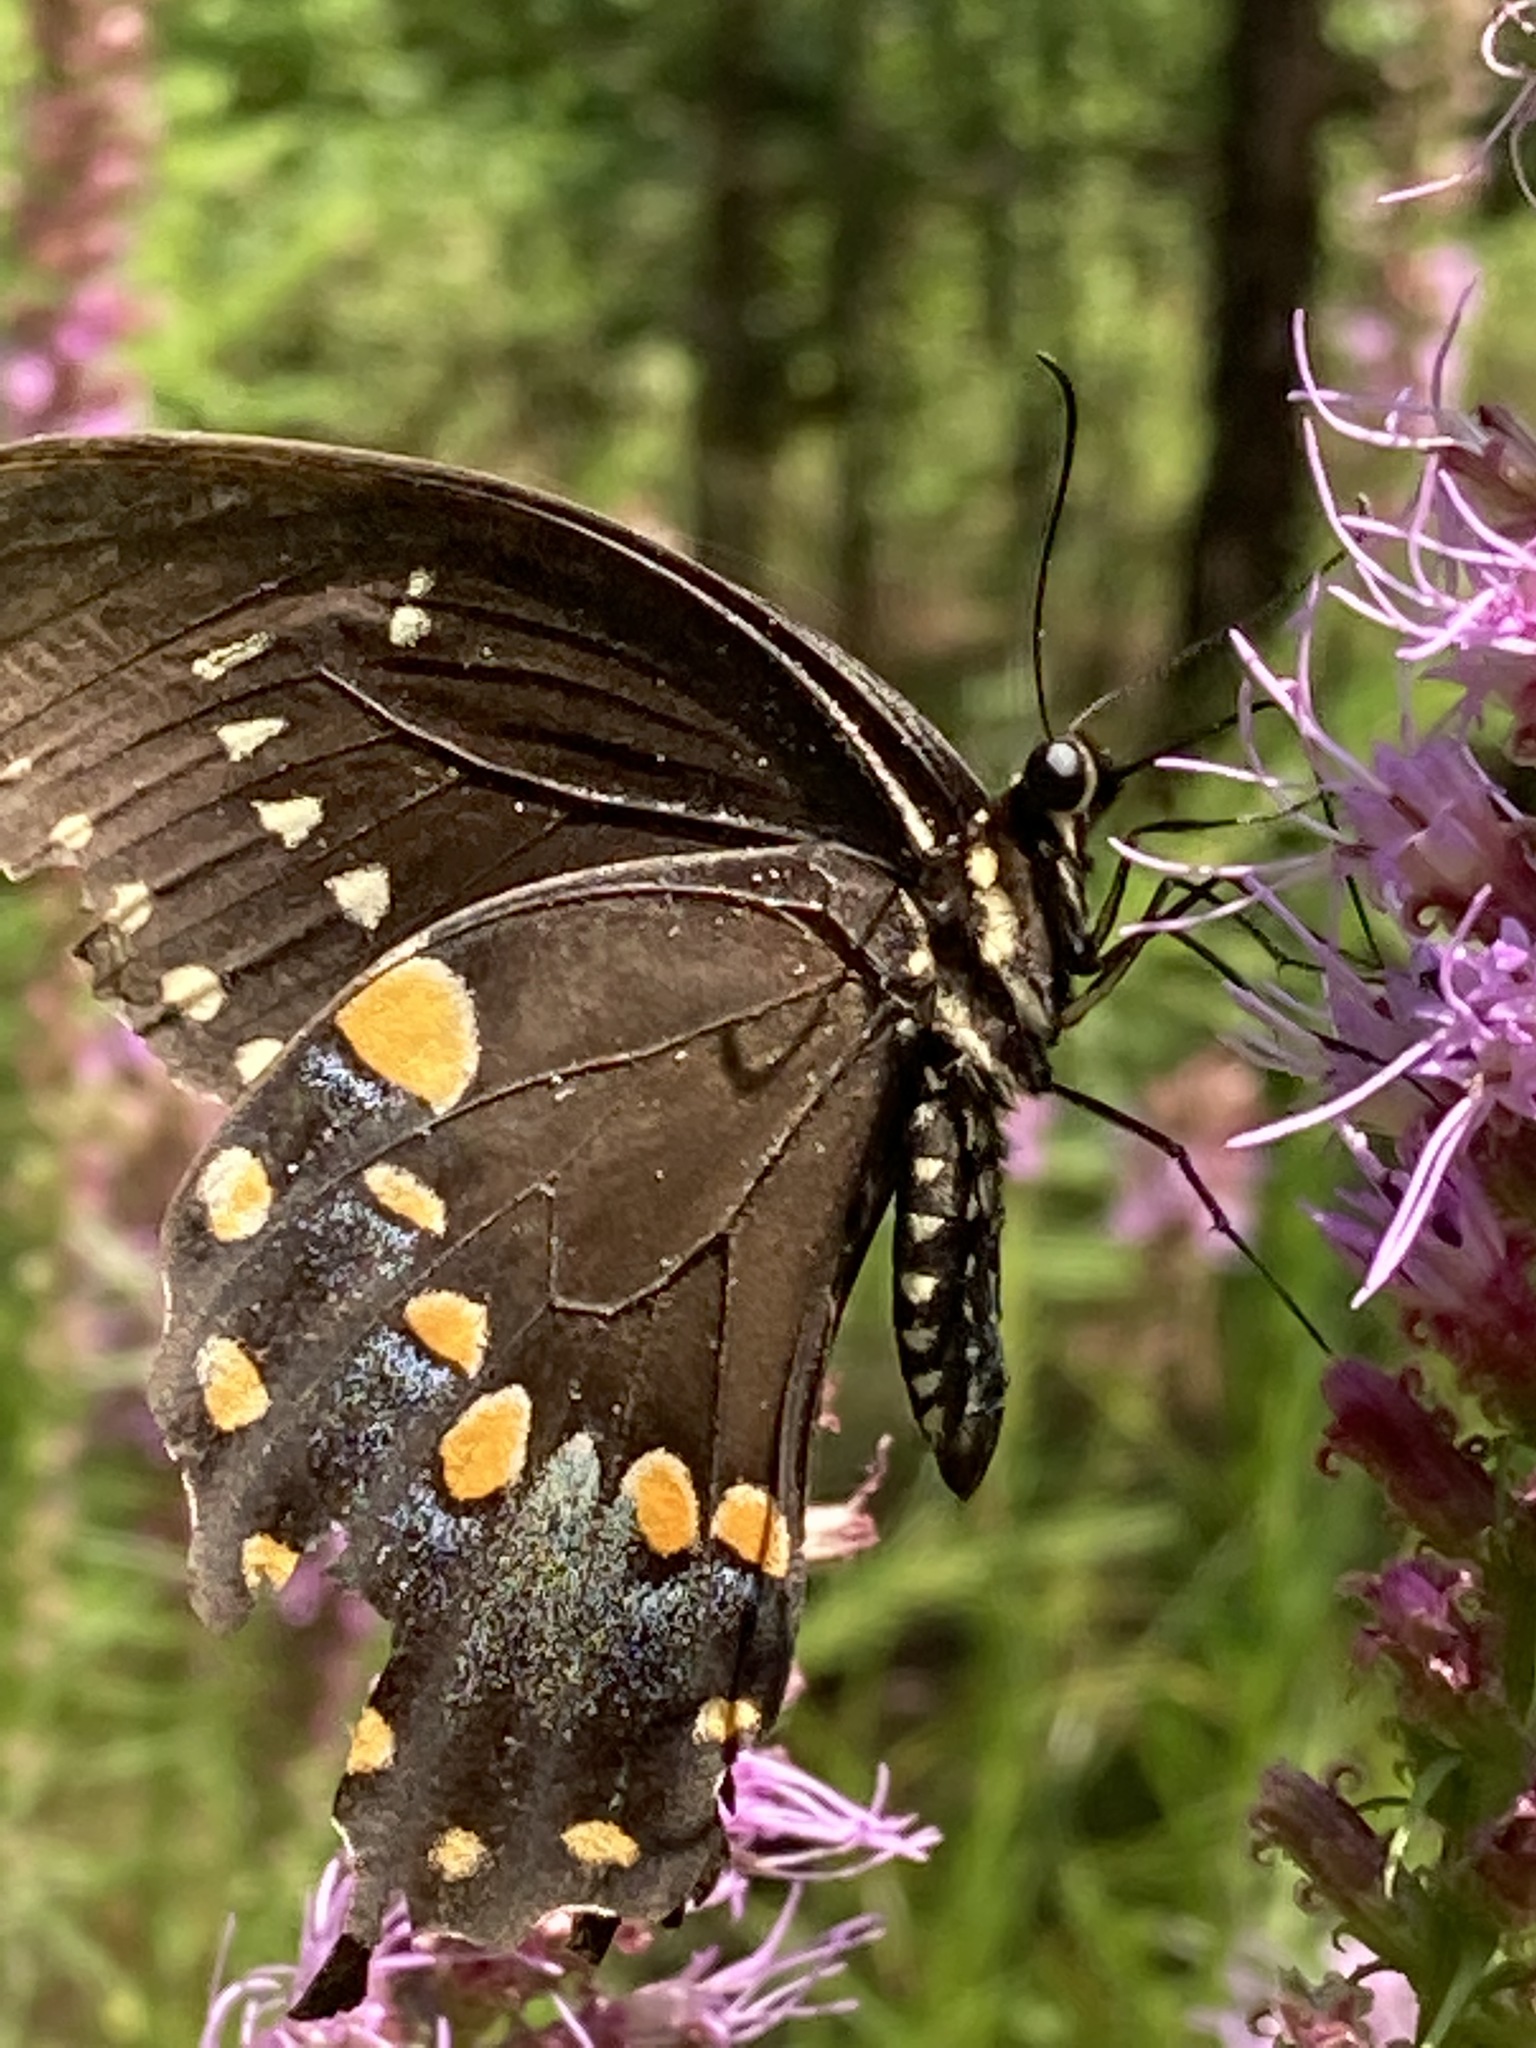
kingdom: Animalia
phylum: Arthropoda
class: Insecta
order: Lepidoptera
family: Papilionidae
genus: Papilio
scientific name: Papilio troilus
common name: Spicebush swallowtail
